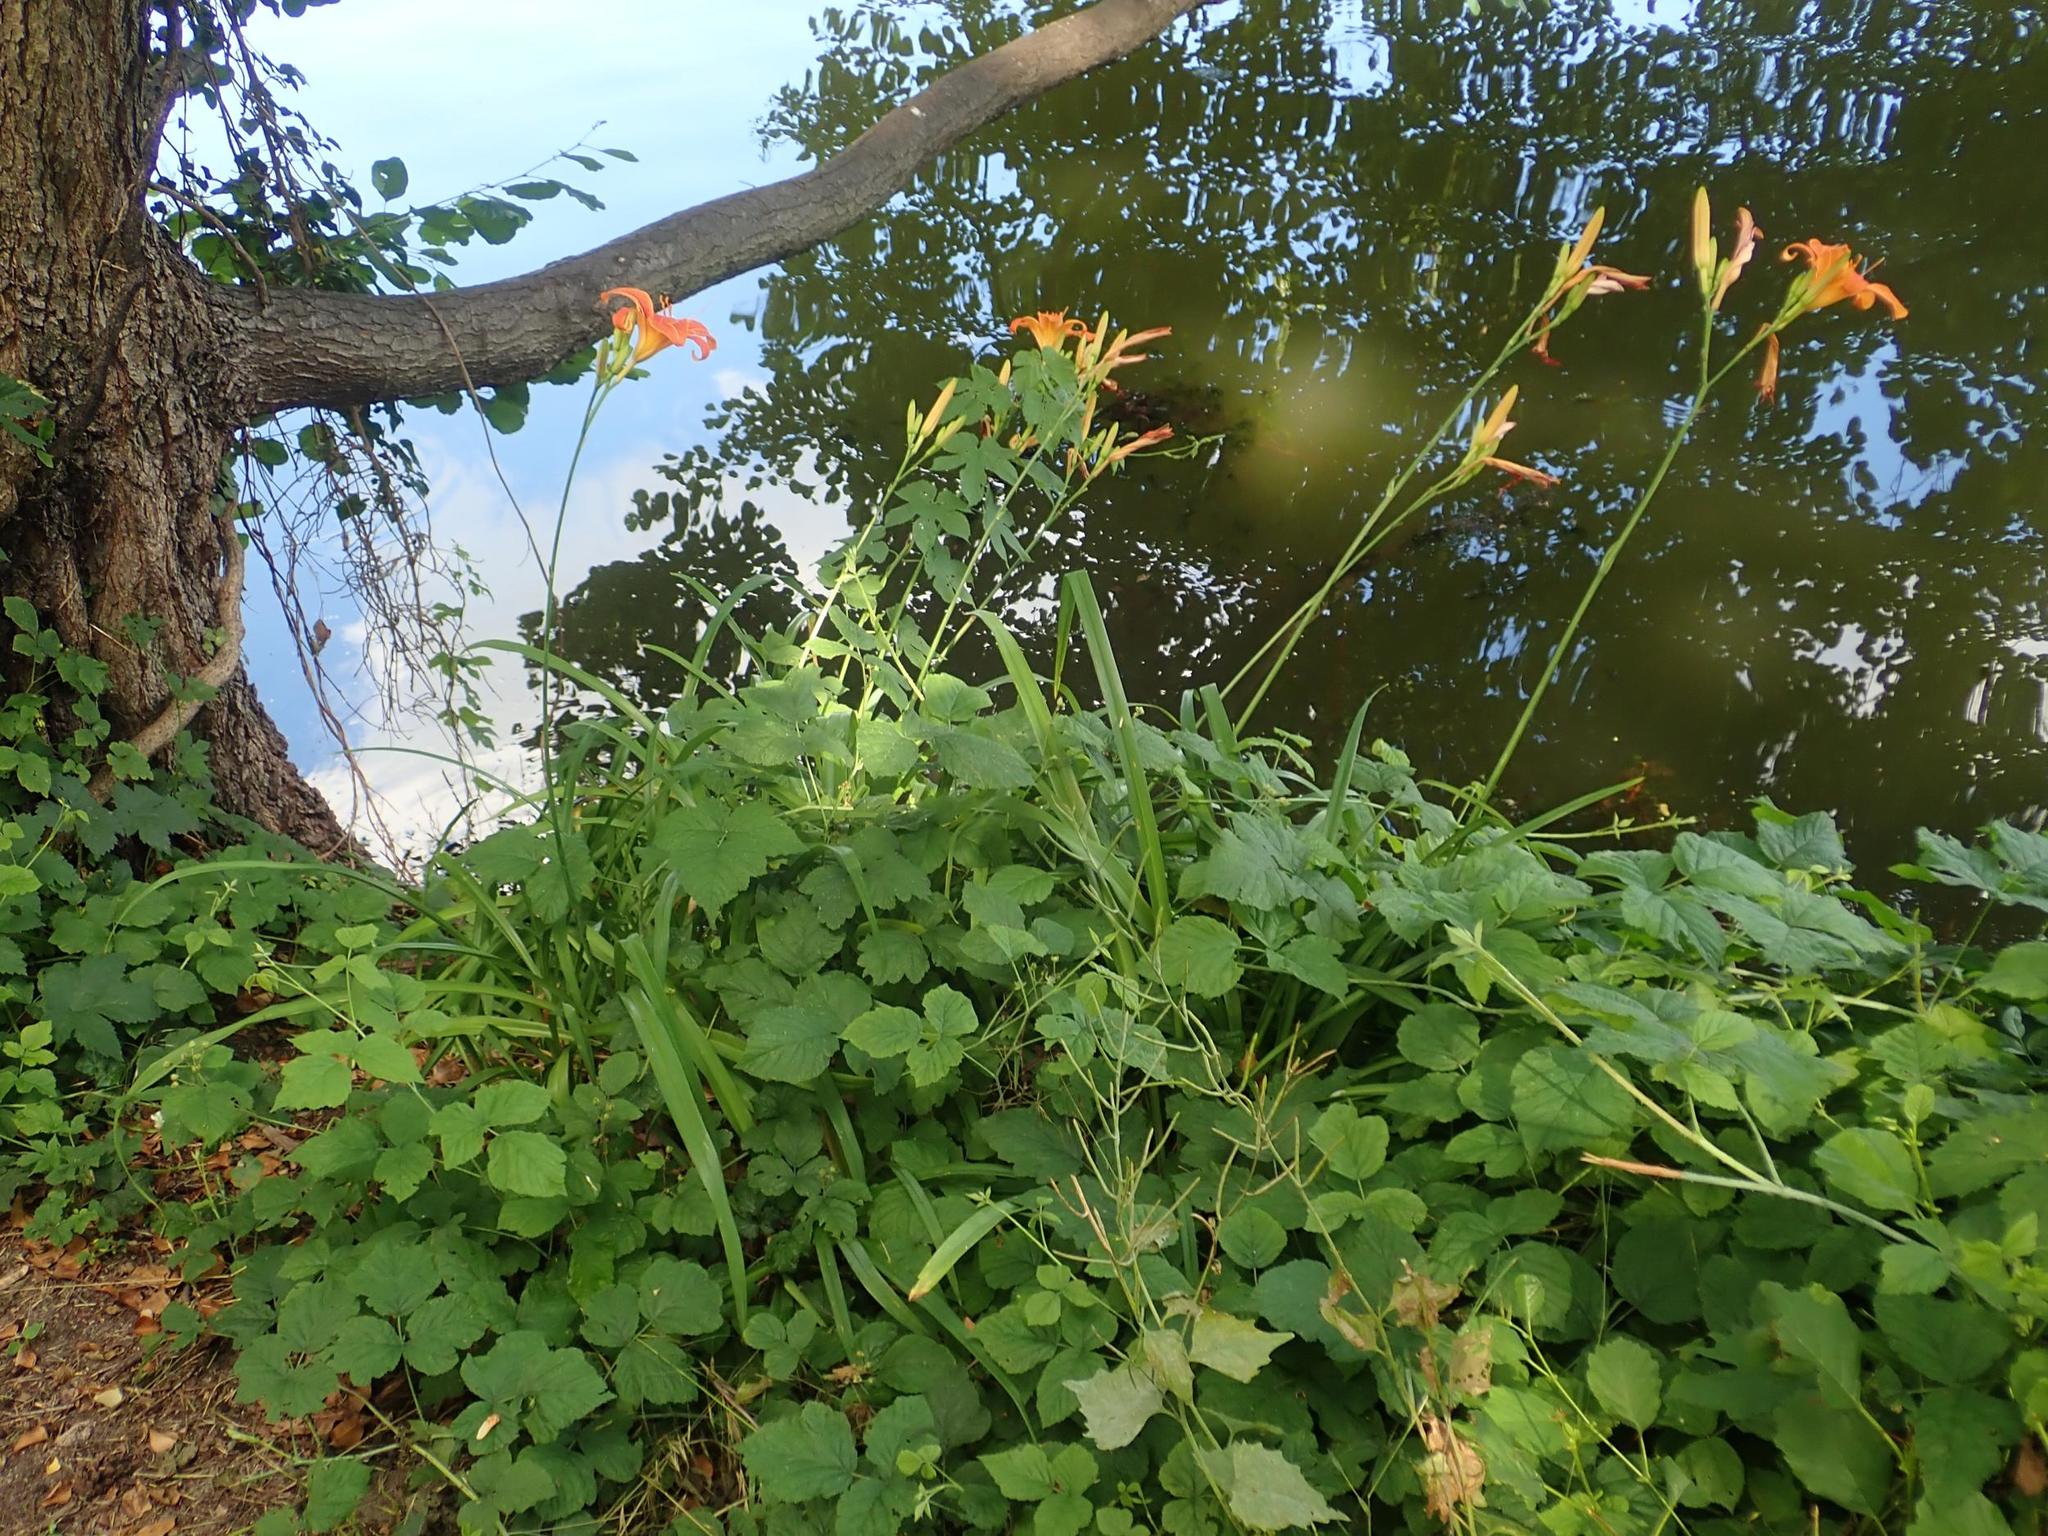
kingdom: Plantae
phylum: Tracheophyta
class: Liliopsida
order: Asparagales
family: Asphodelaceae
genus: Hemerocallis
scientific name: Hemerocallis fulva
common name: Orange day-lily
